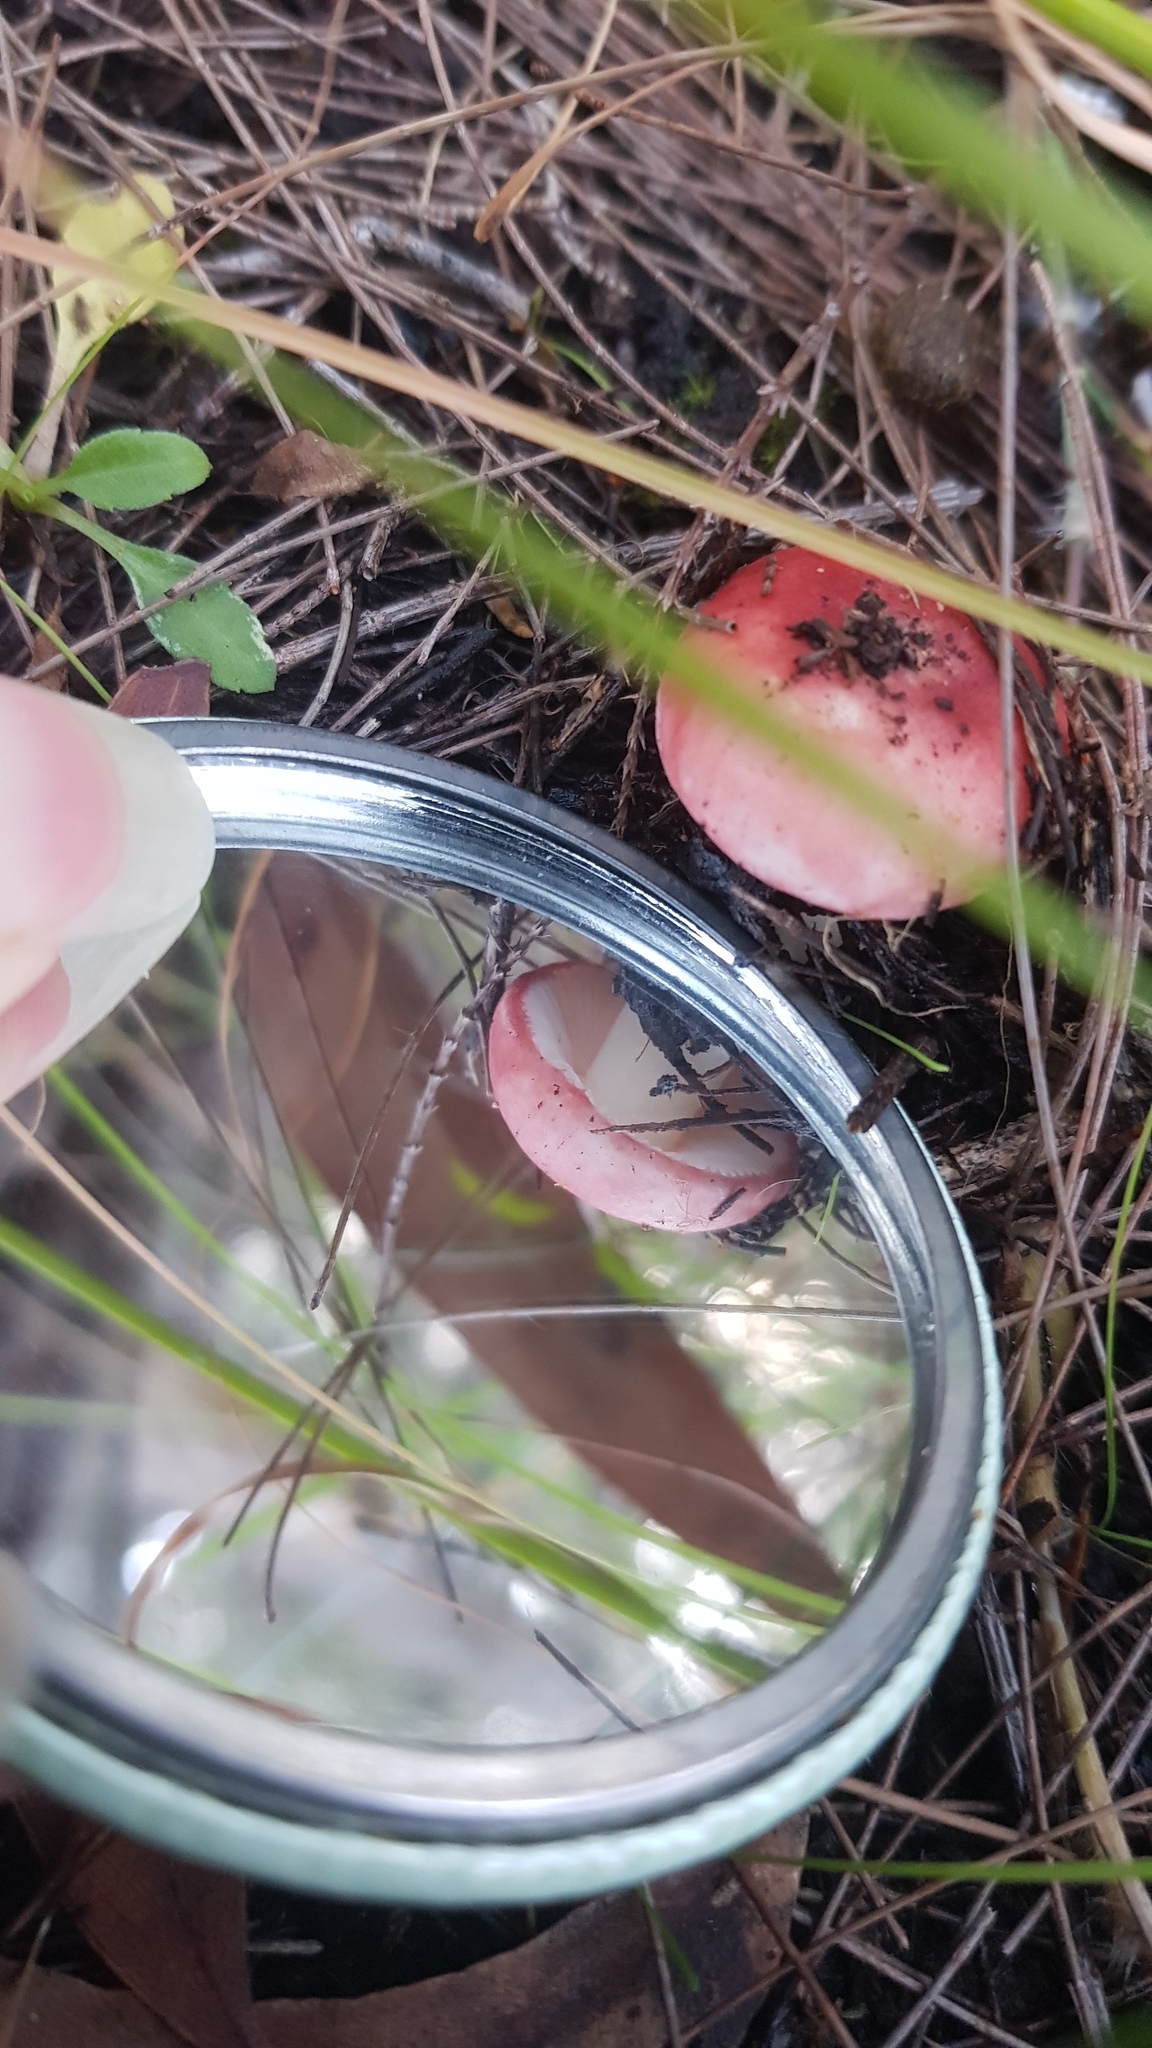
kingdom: Fungi
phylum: Basidiomycota
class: Agaricomycetes
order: Russulales
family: Russulaceae
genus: Russula
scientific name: Russula persanguinea
